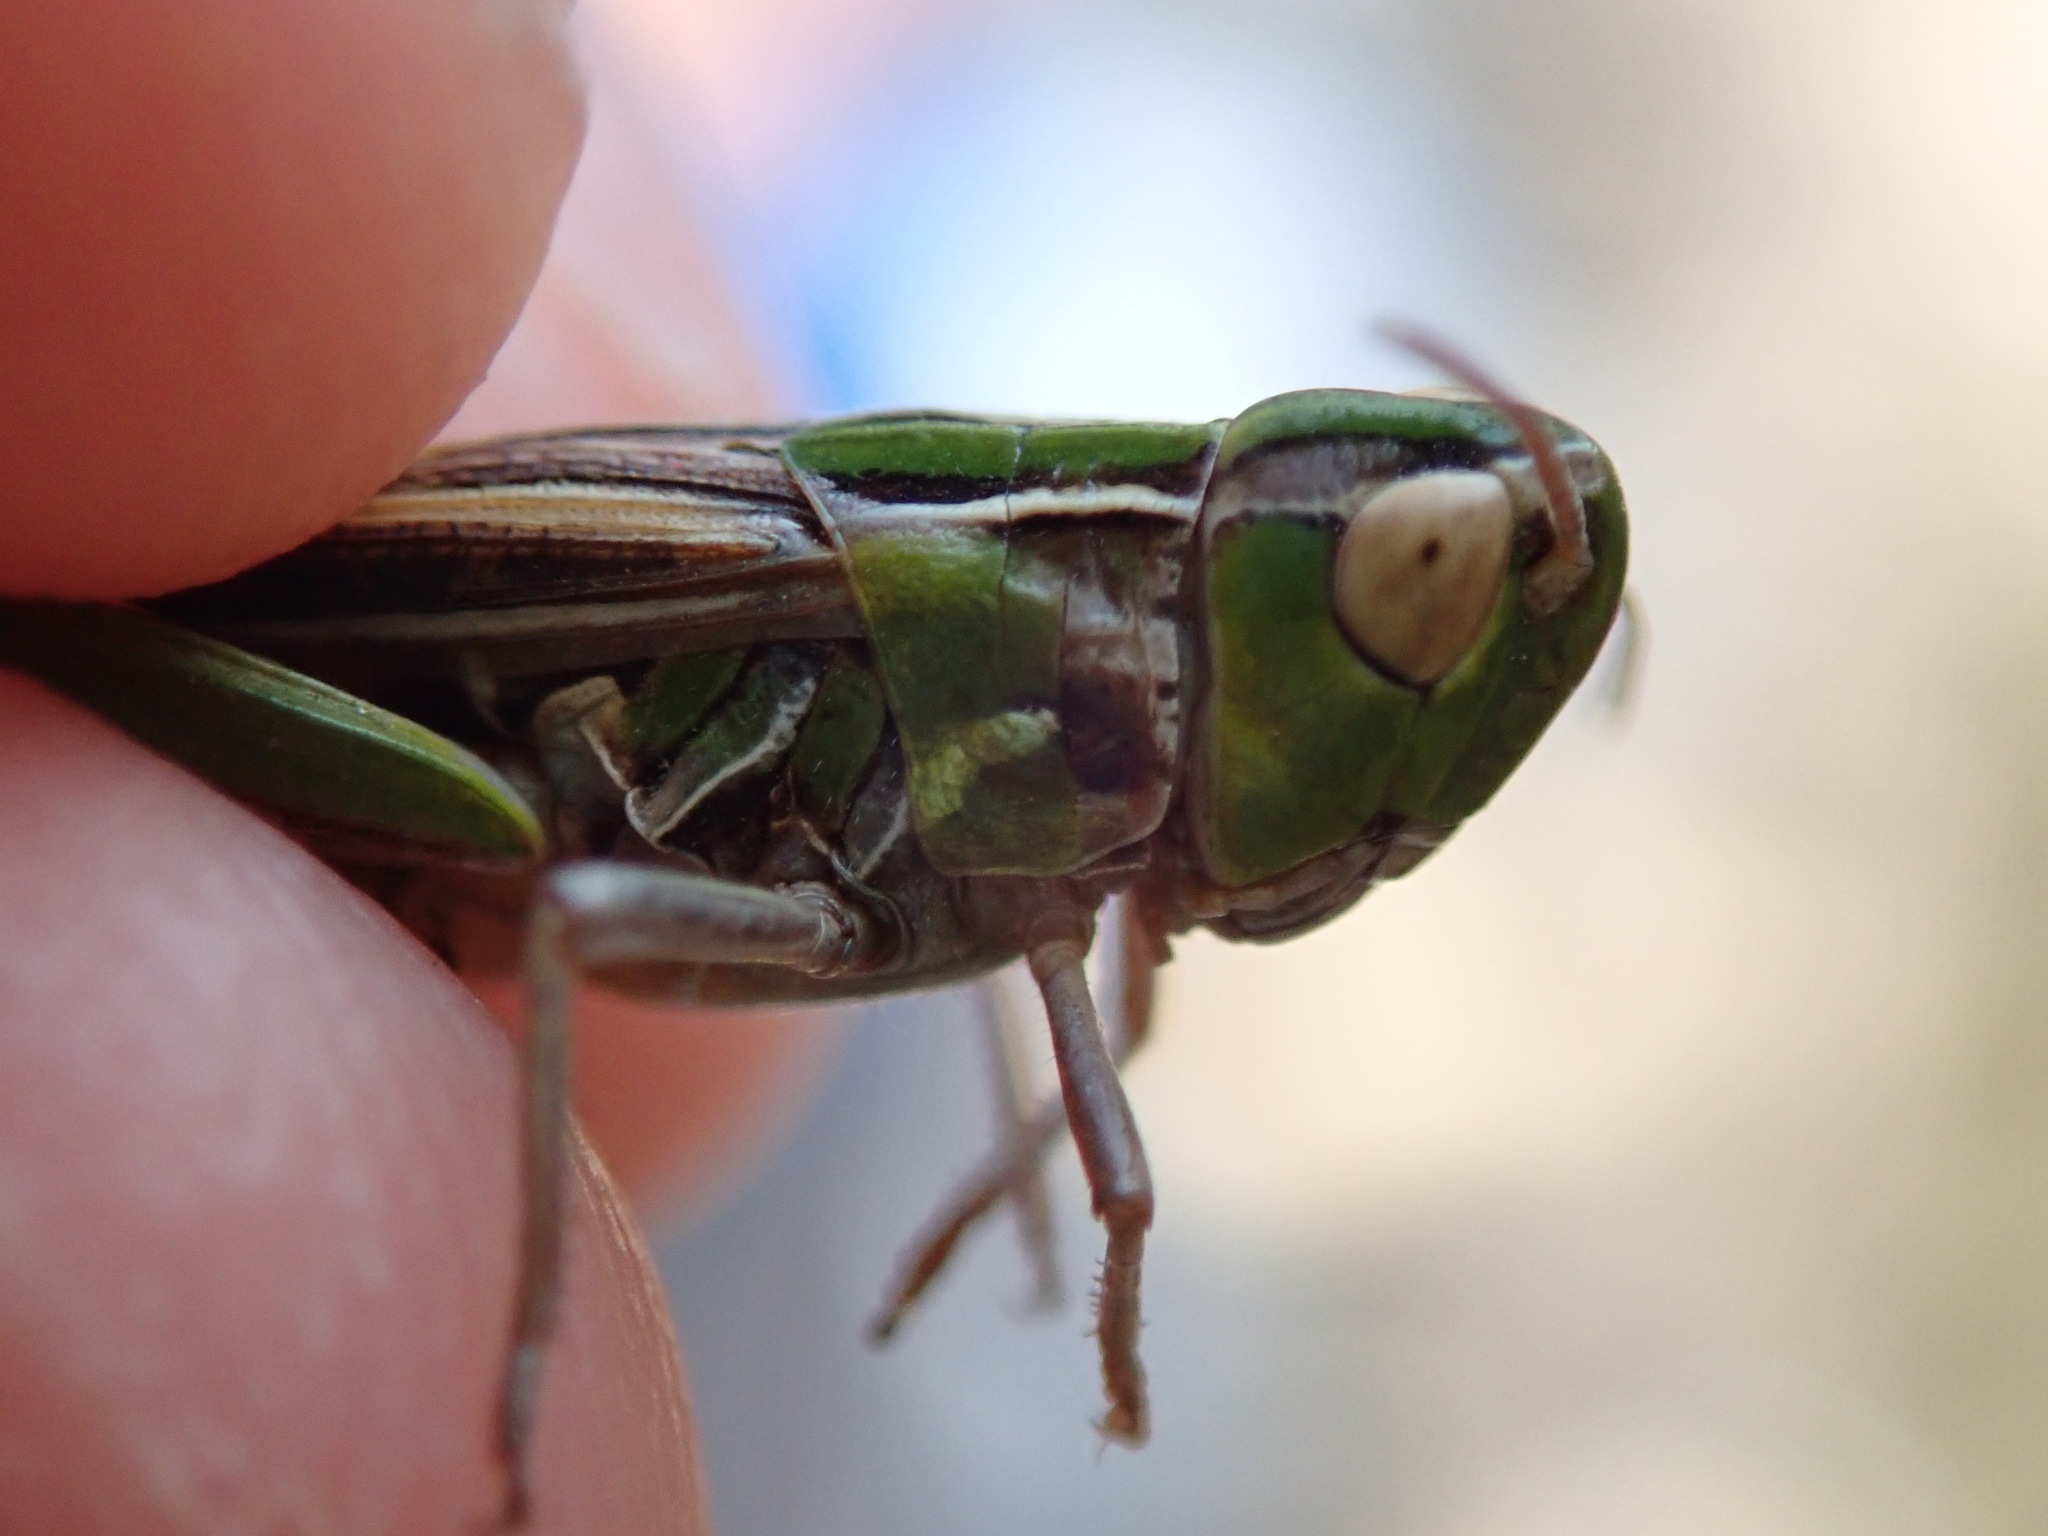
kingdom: Animalia
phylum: Arthropoda
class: Insecta
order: Orthoptera
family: Acrididae
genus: Stenobothrus
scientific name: Stenobothrus stigmaticus
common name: Lesser mottled grasshopper
